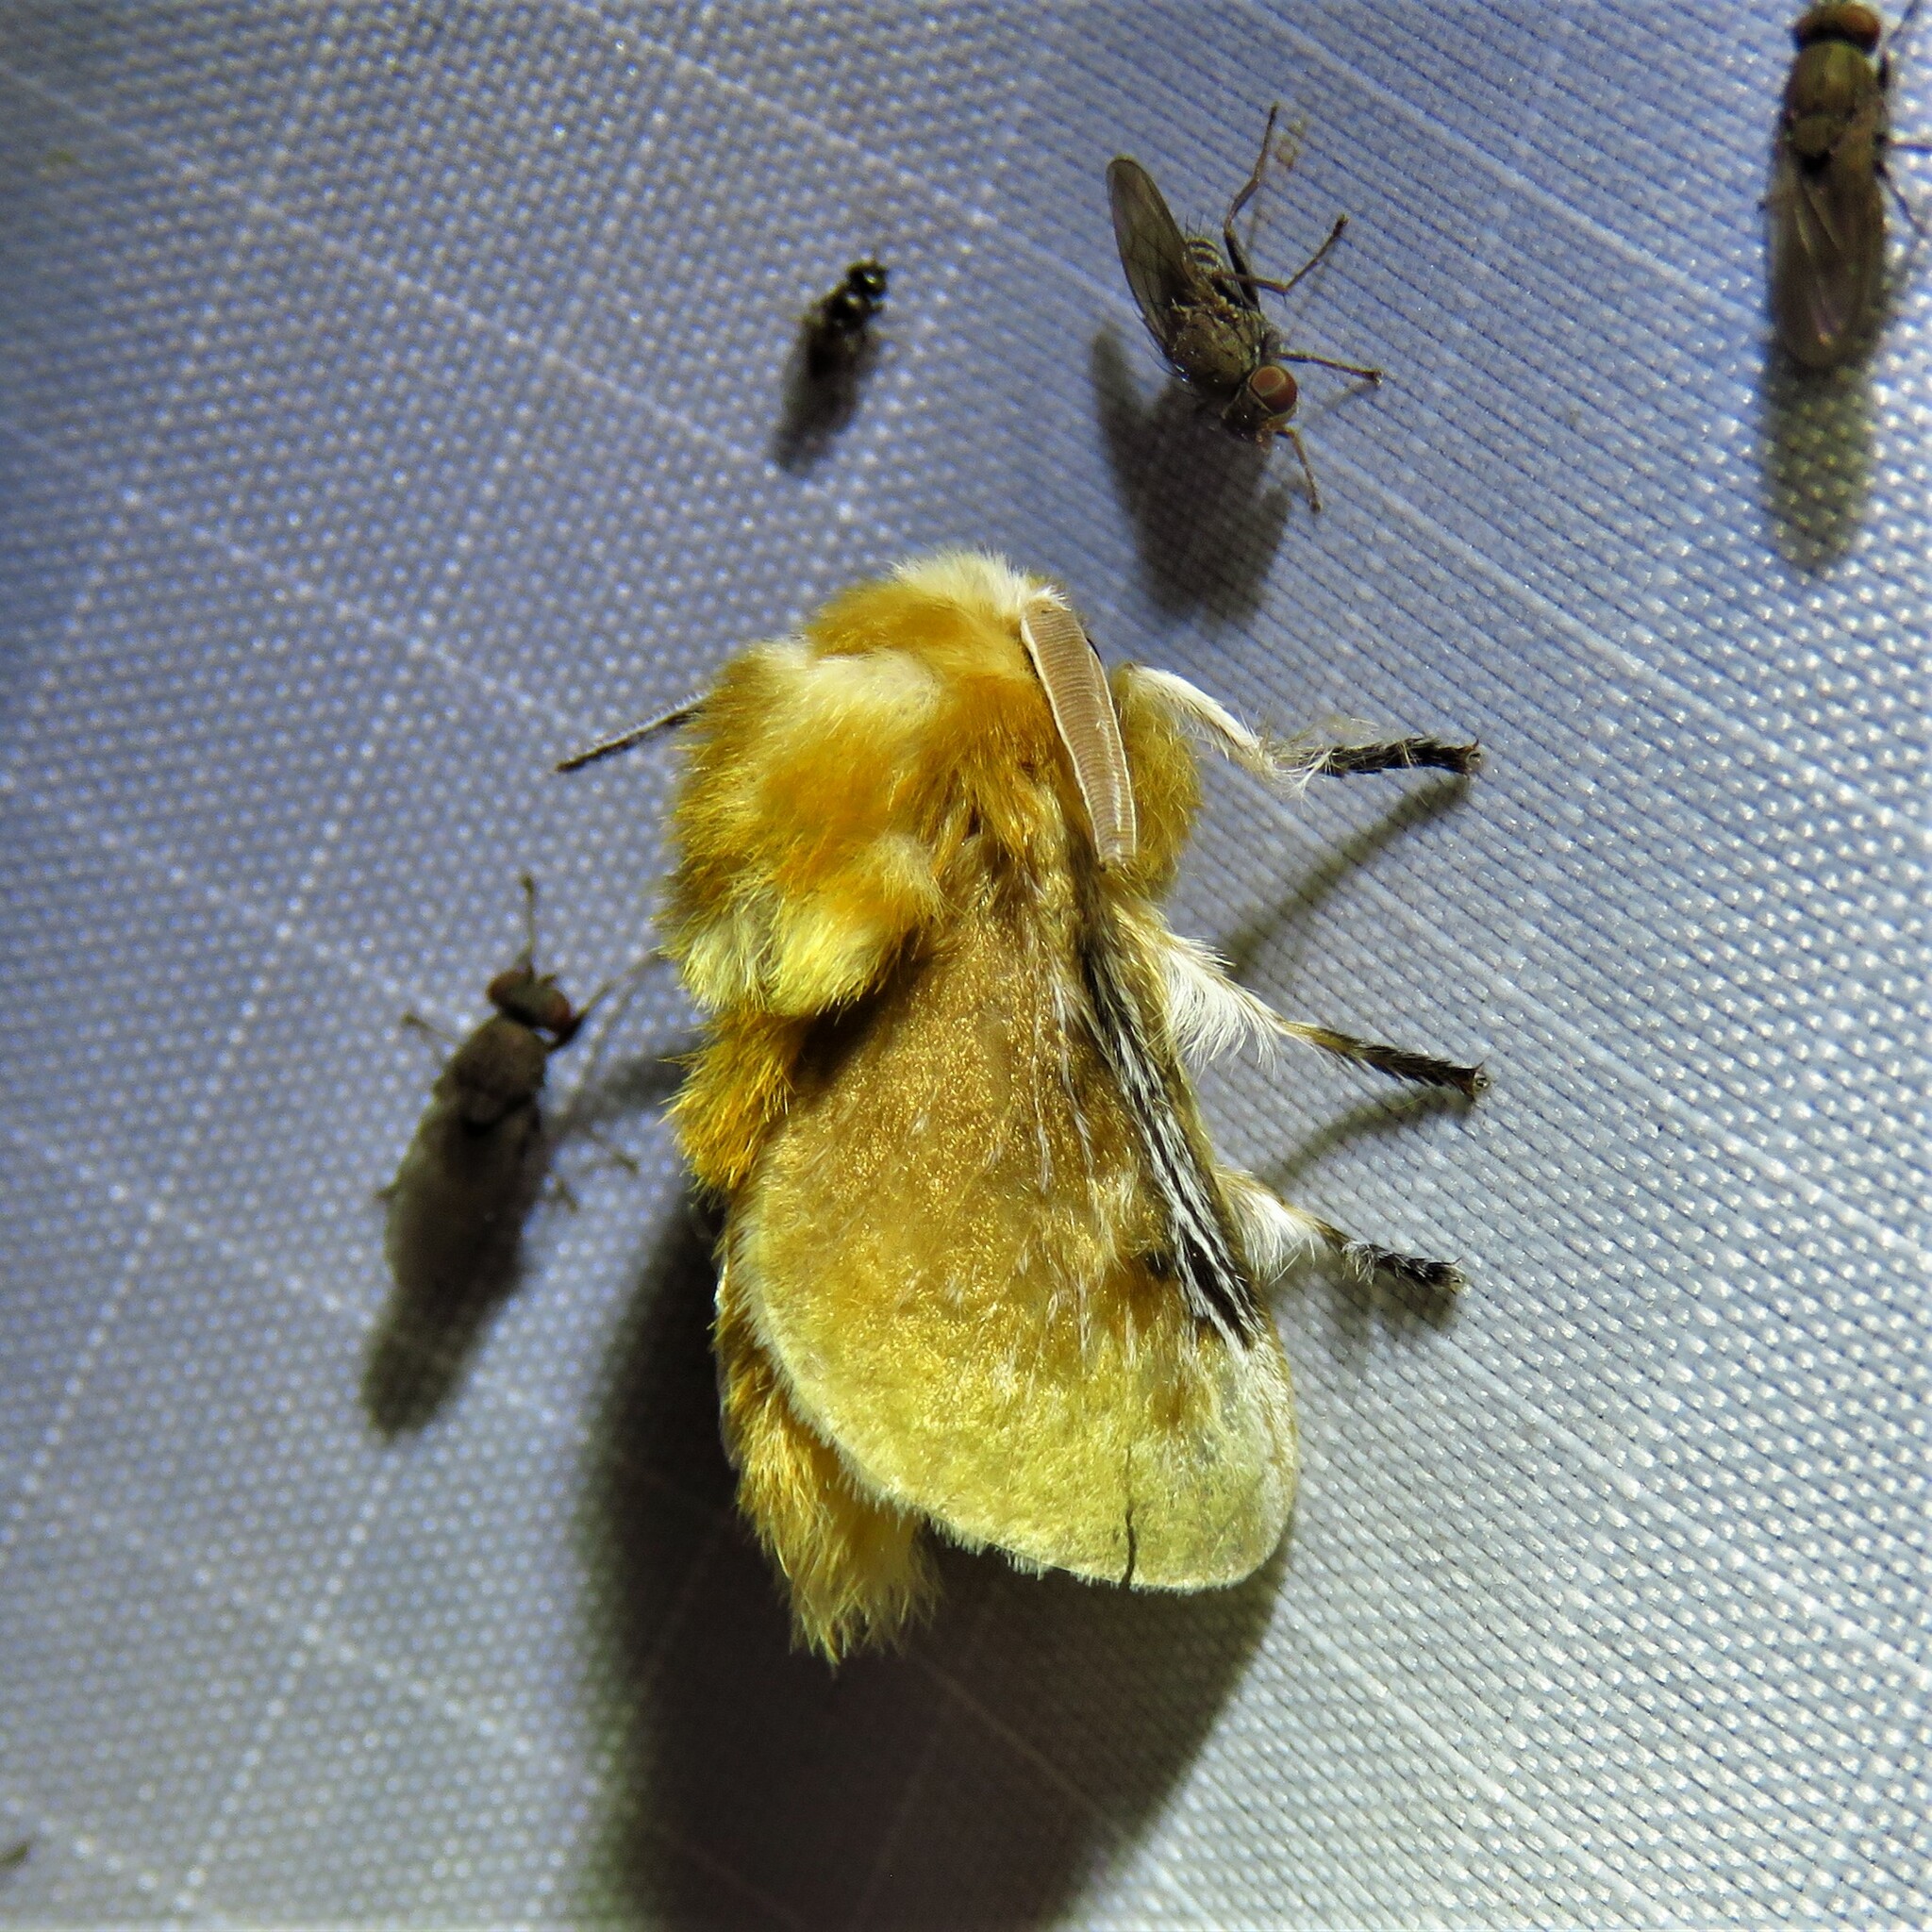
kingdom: Animalia
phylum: Arthropoda
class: Insecta
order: Lepidoptera
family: Megalopygidae
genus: Megalopyge
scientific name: Megalopyge opercularis
